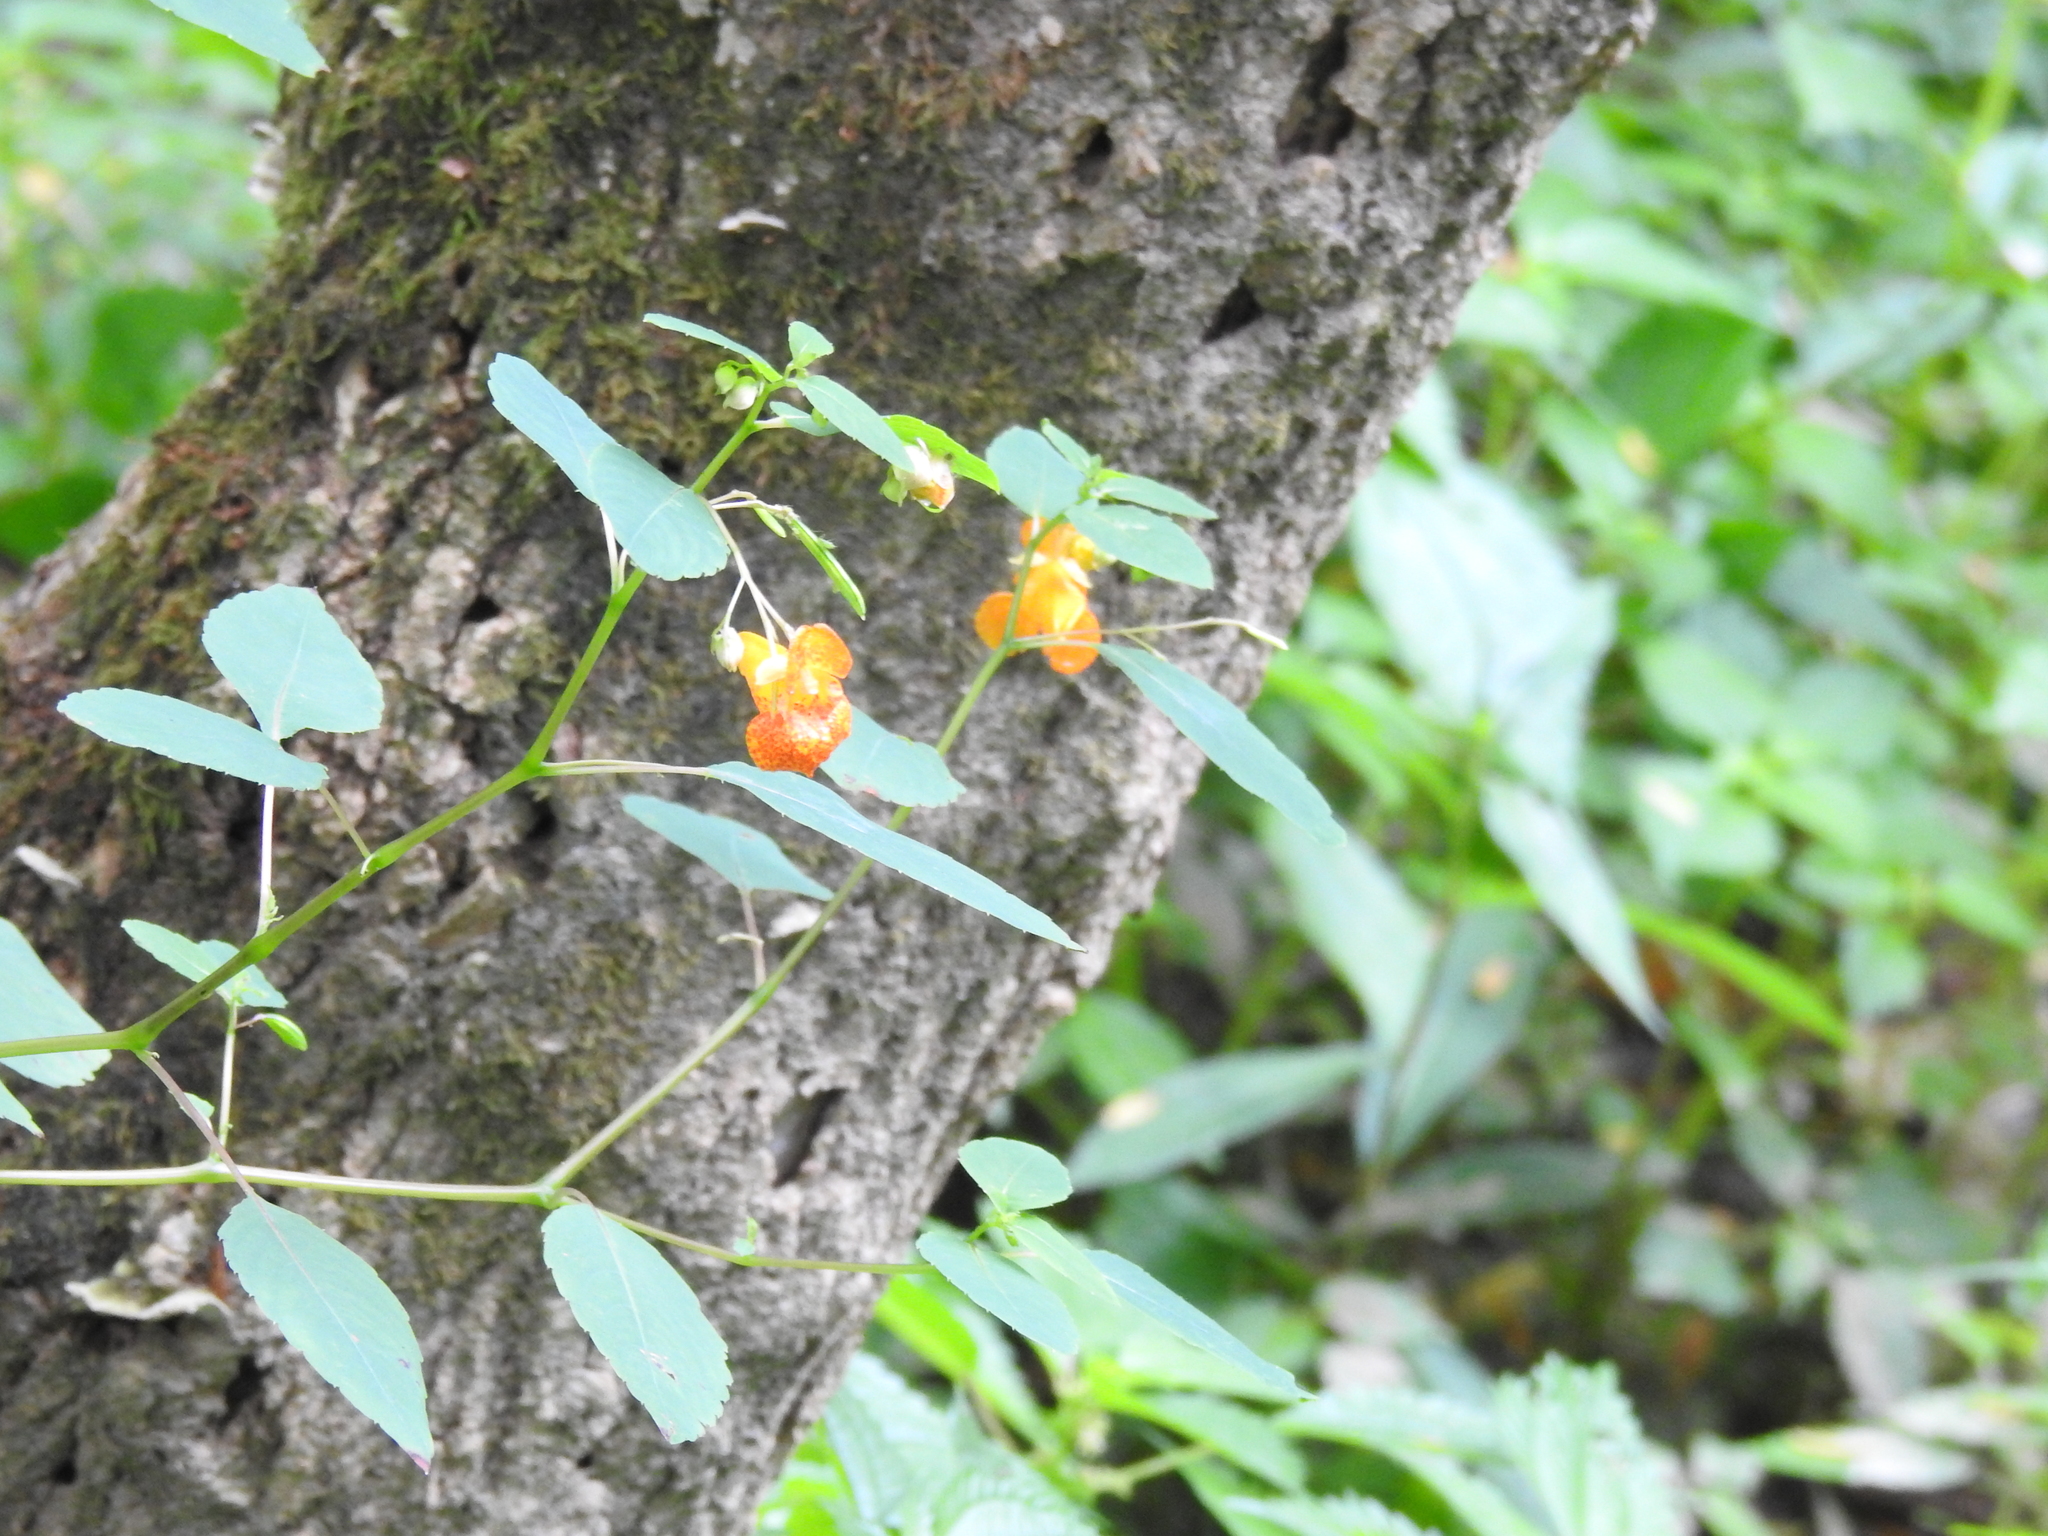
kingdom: Plantae
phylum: Tracheophyta
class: Magnoliopsida
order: Ericales
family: Balsaminaceae
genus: Impatiens
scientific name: Impatiens capensis
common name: Orange balsam
